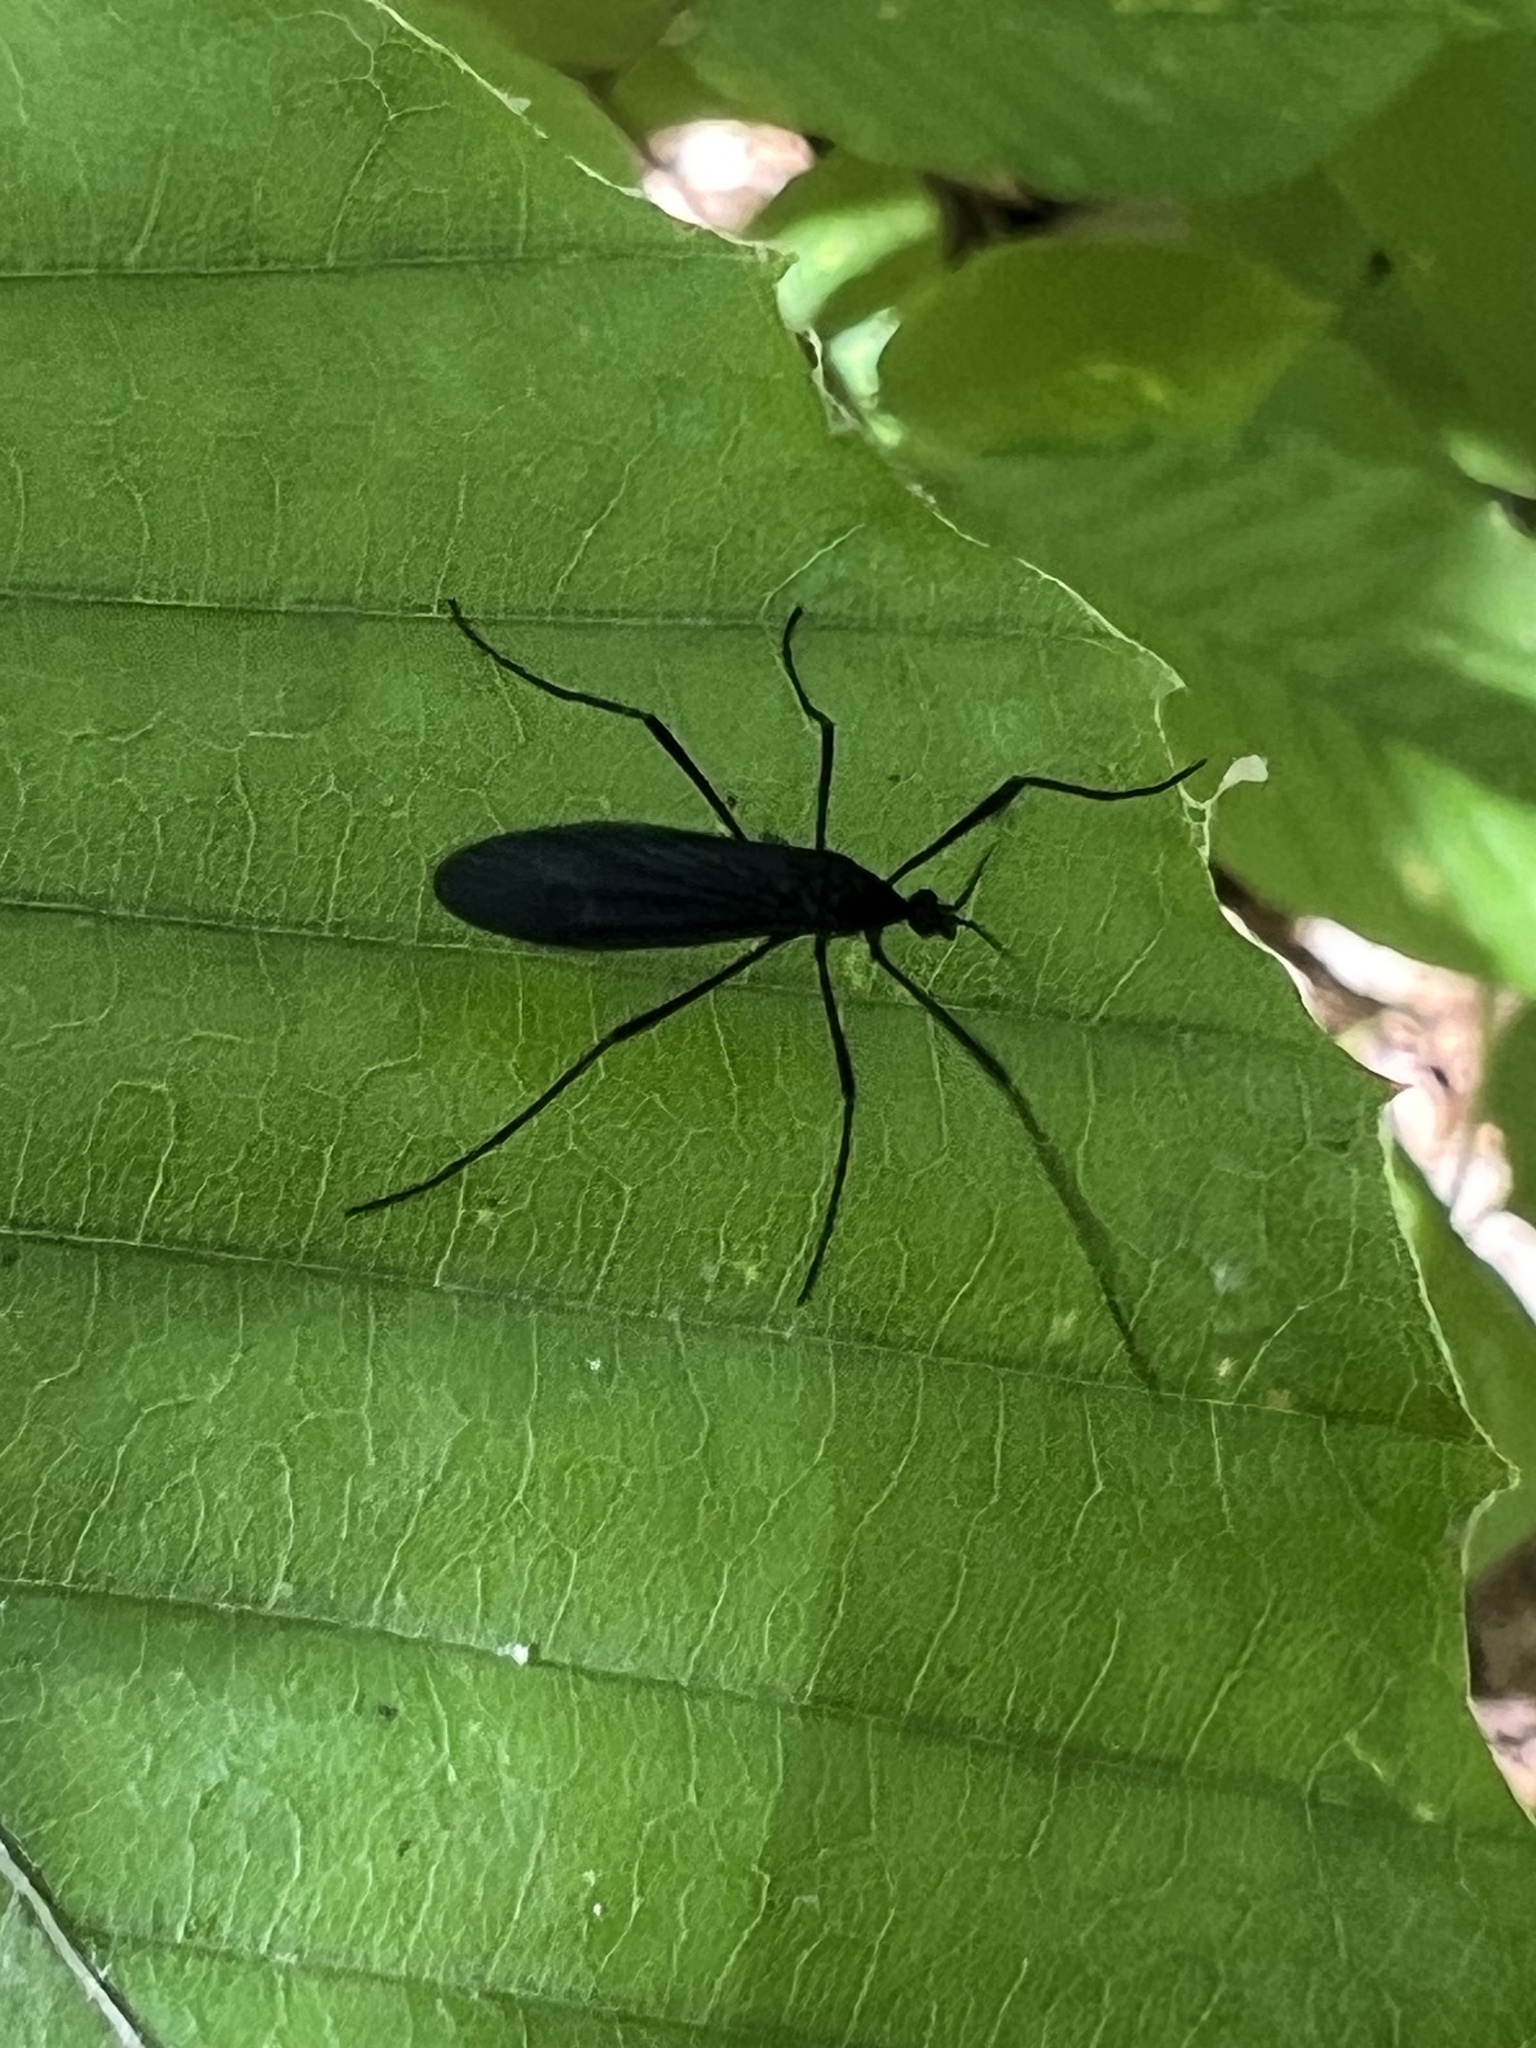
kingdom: Animalia
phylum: Arthropoda
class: Insecta
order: Diptera
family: Limoniidae
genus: Eugnophomyia
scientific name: Eugnophomyia luctuosa
